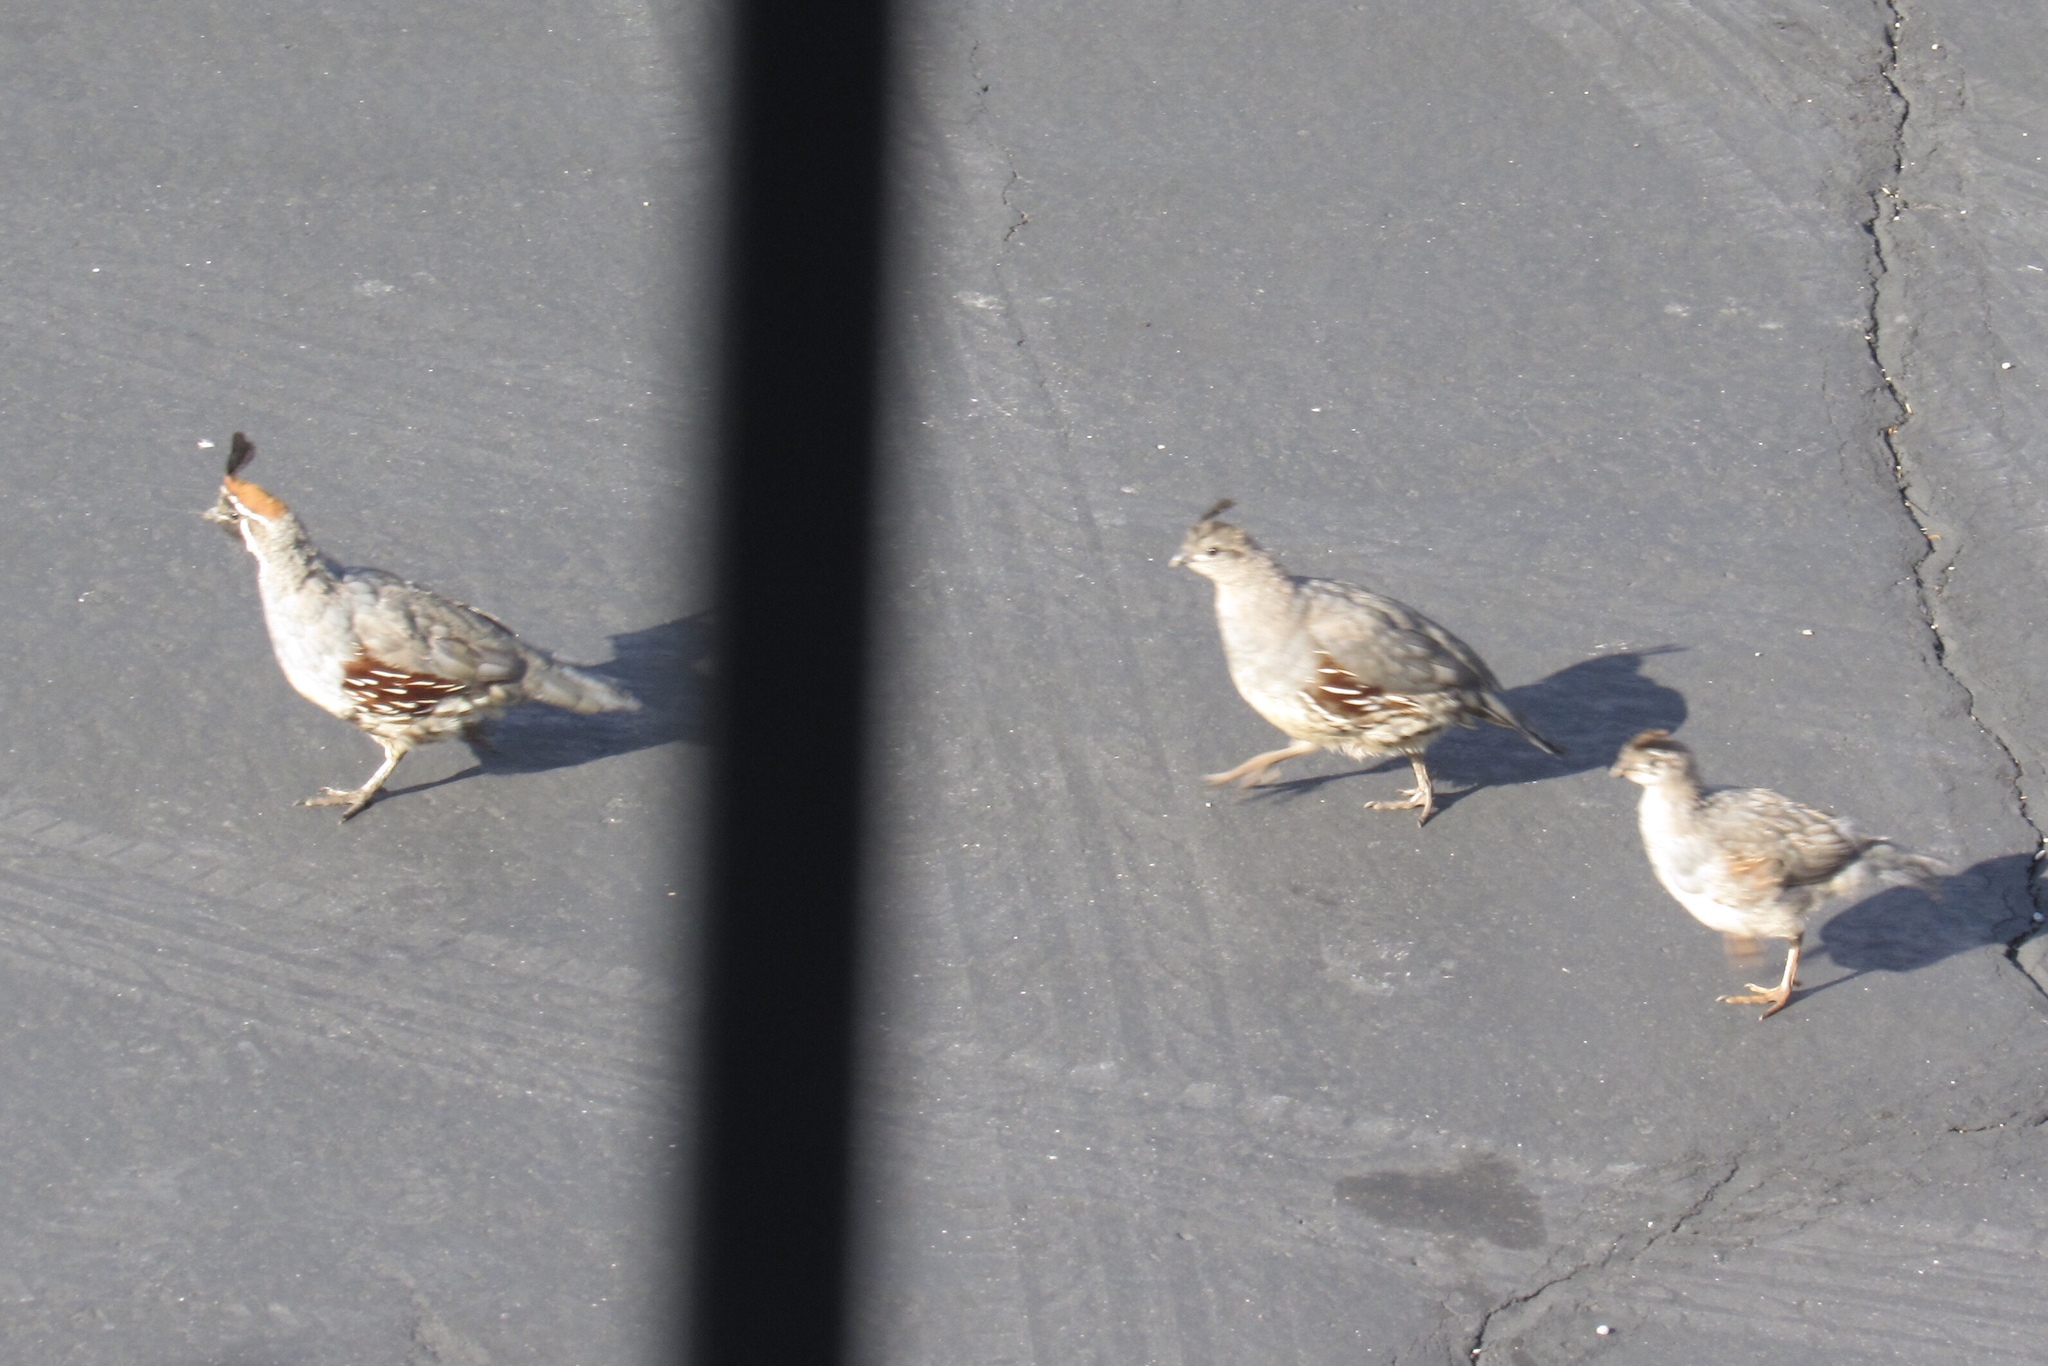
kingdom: Animalia
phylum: Chordata
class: Aves
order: Galliformes
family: Odontophoridae
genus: Callipepla
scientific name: Callipepla gambelii
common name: Gambel's quail
